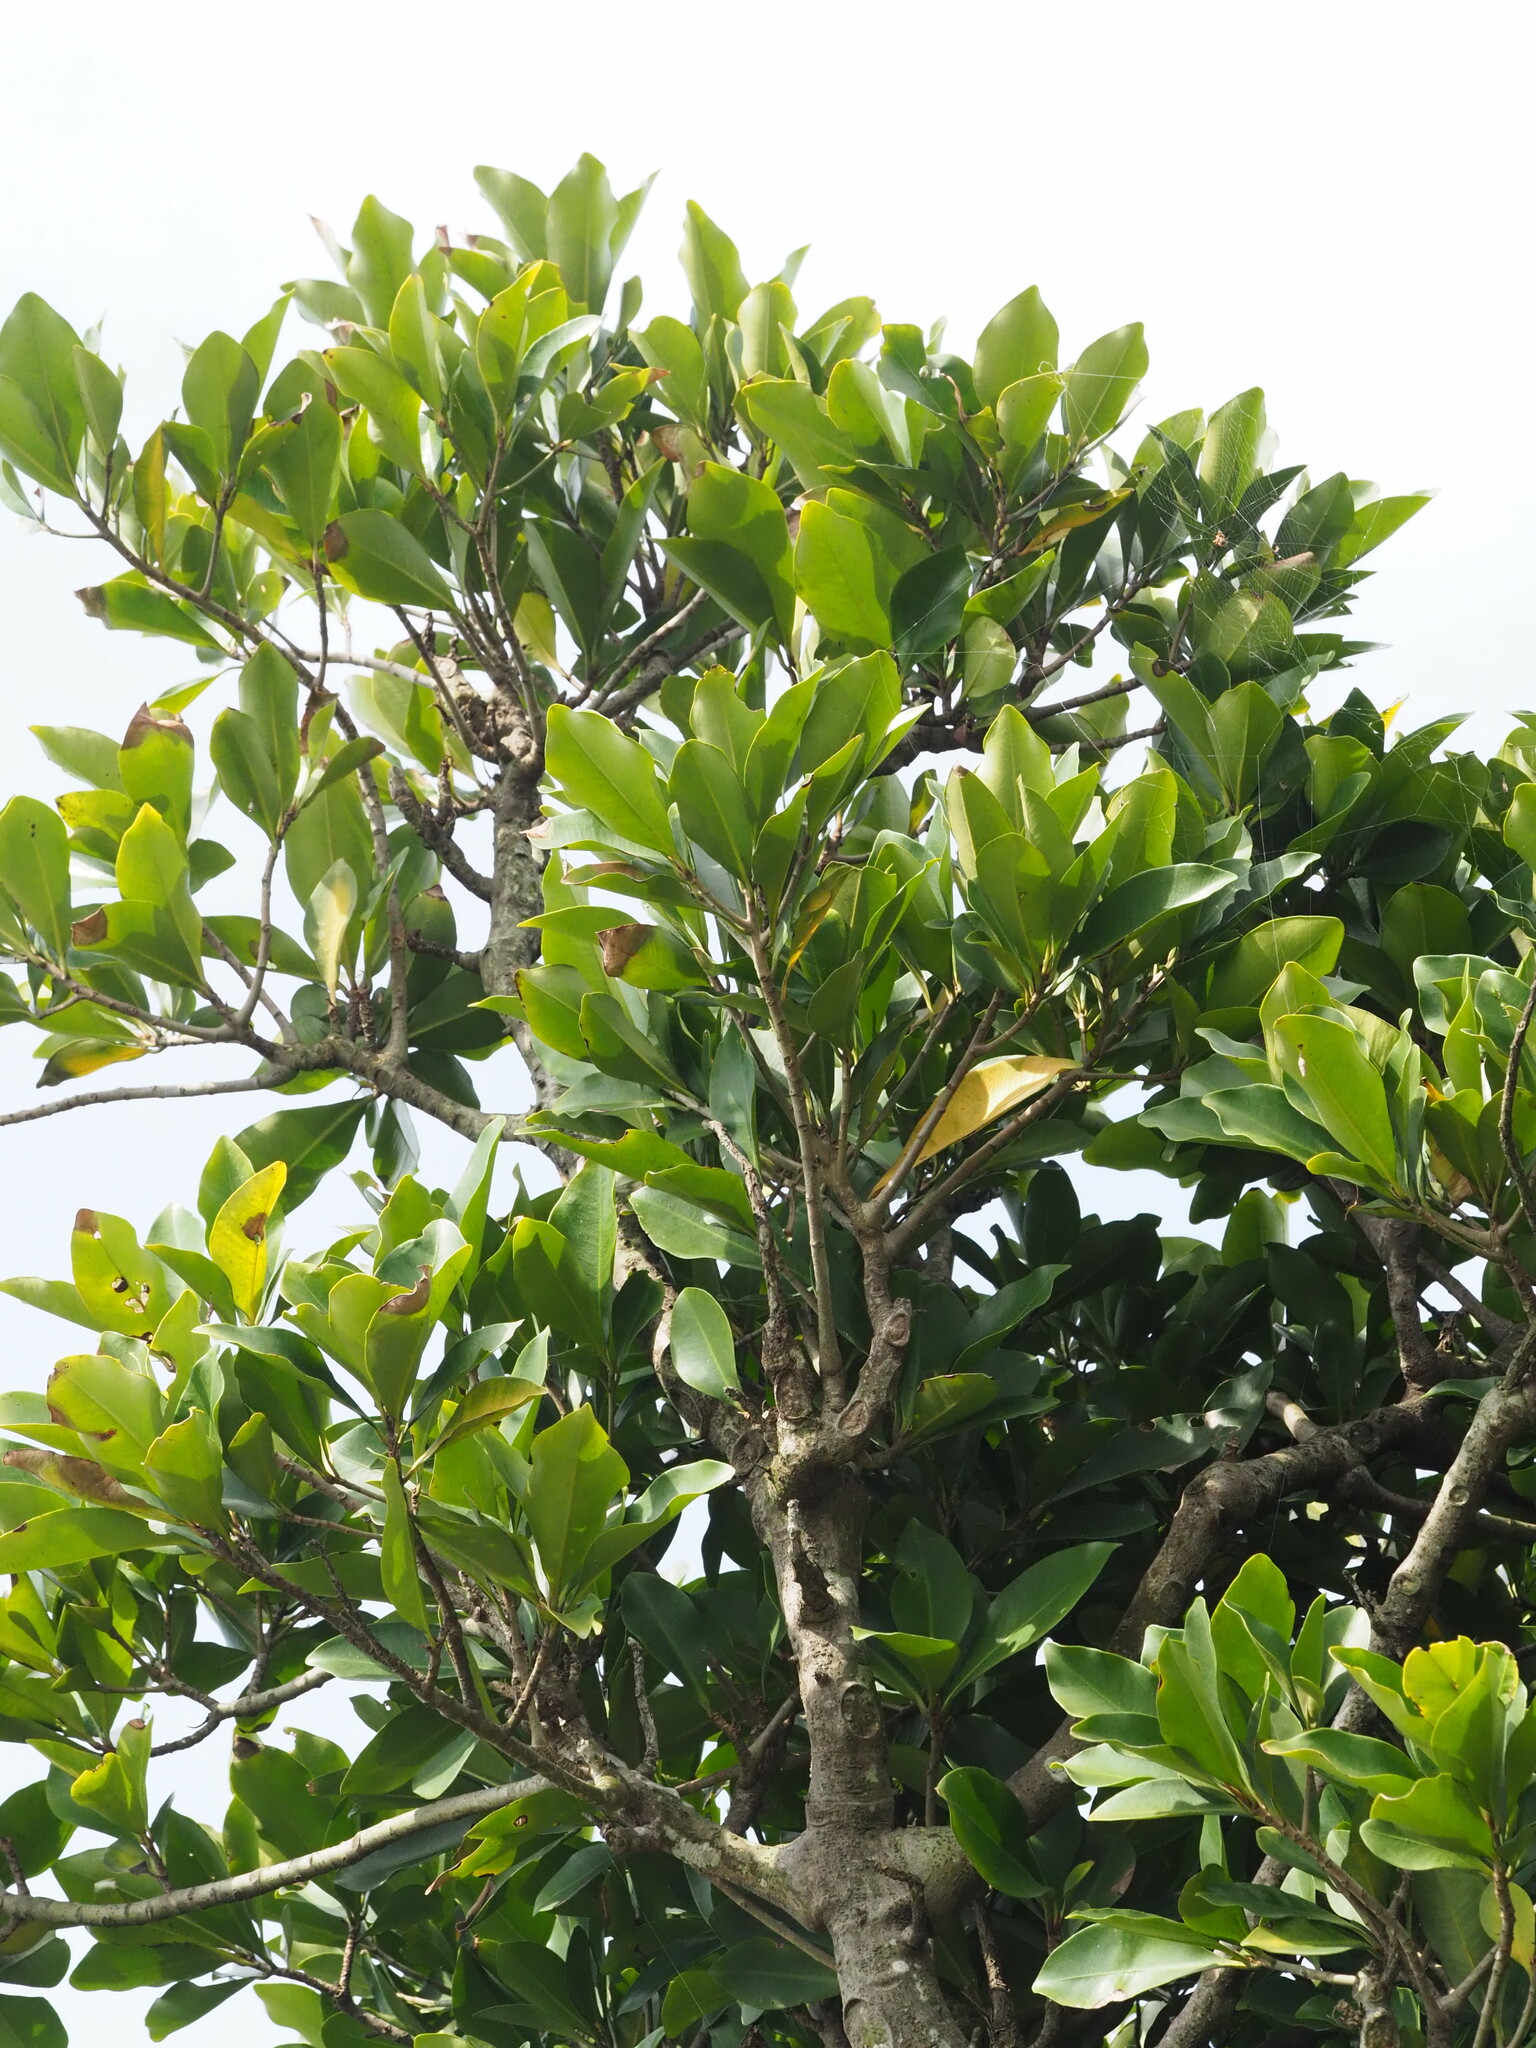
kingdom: Plantae
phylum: Tracheophyta
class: Magnoliopsida
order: Ericales
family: Primulaceae
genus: Ardisia
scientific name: Ardisia sieboldii
